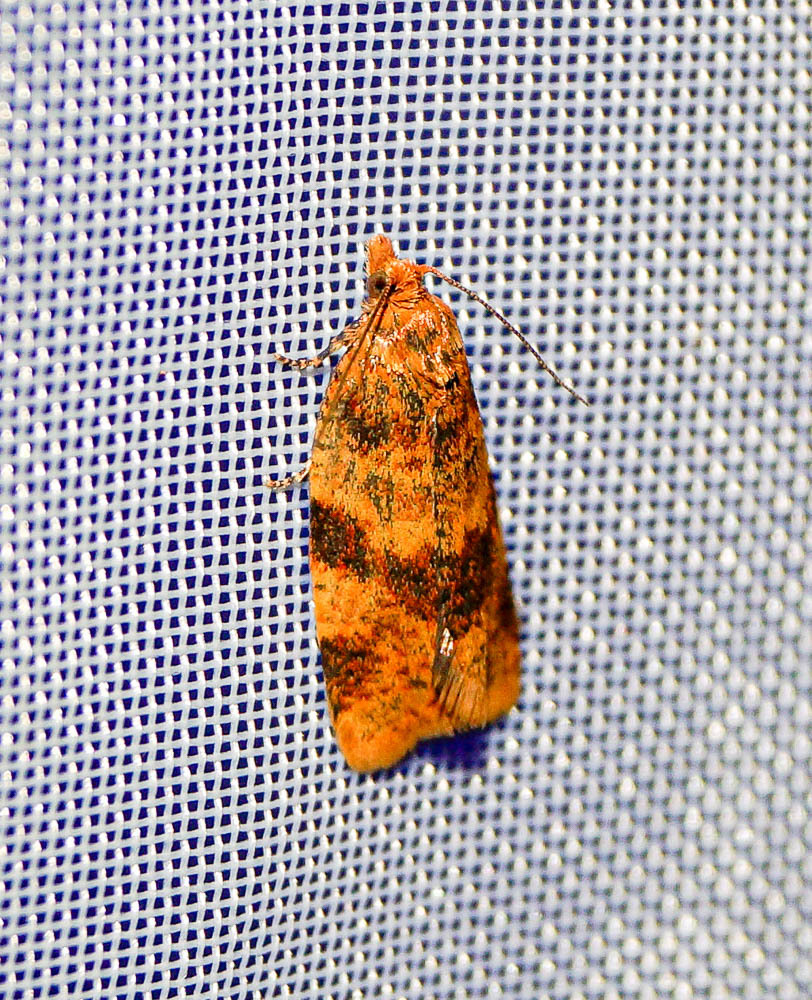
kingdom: Animalia
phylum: Arthropoda
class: Insecta
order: Lepidoptera
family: Tortricidae
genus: Epagoge
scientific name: Epagoge grotiana
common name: Brown-barred twist
